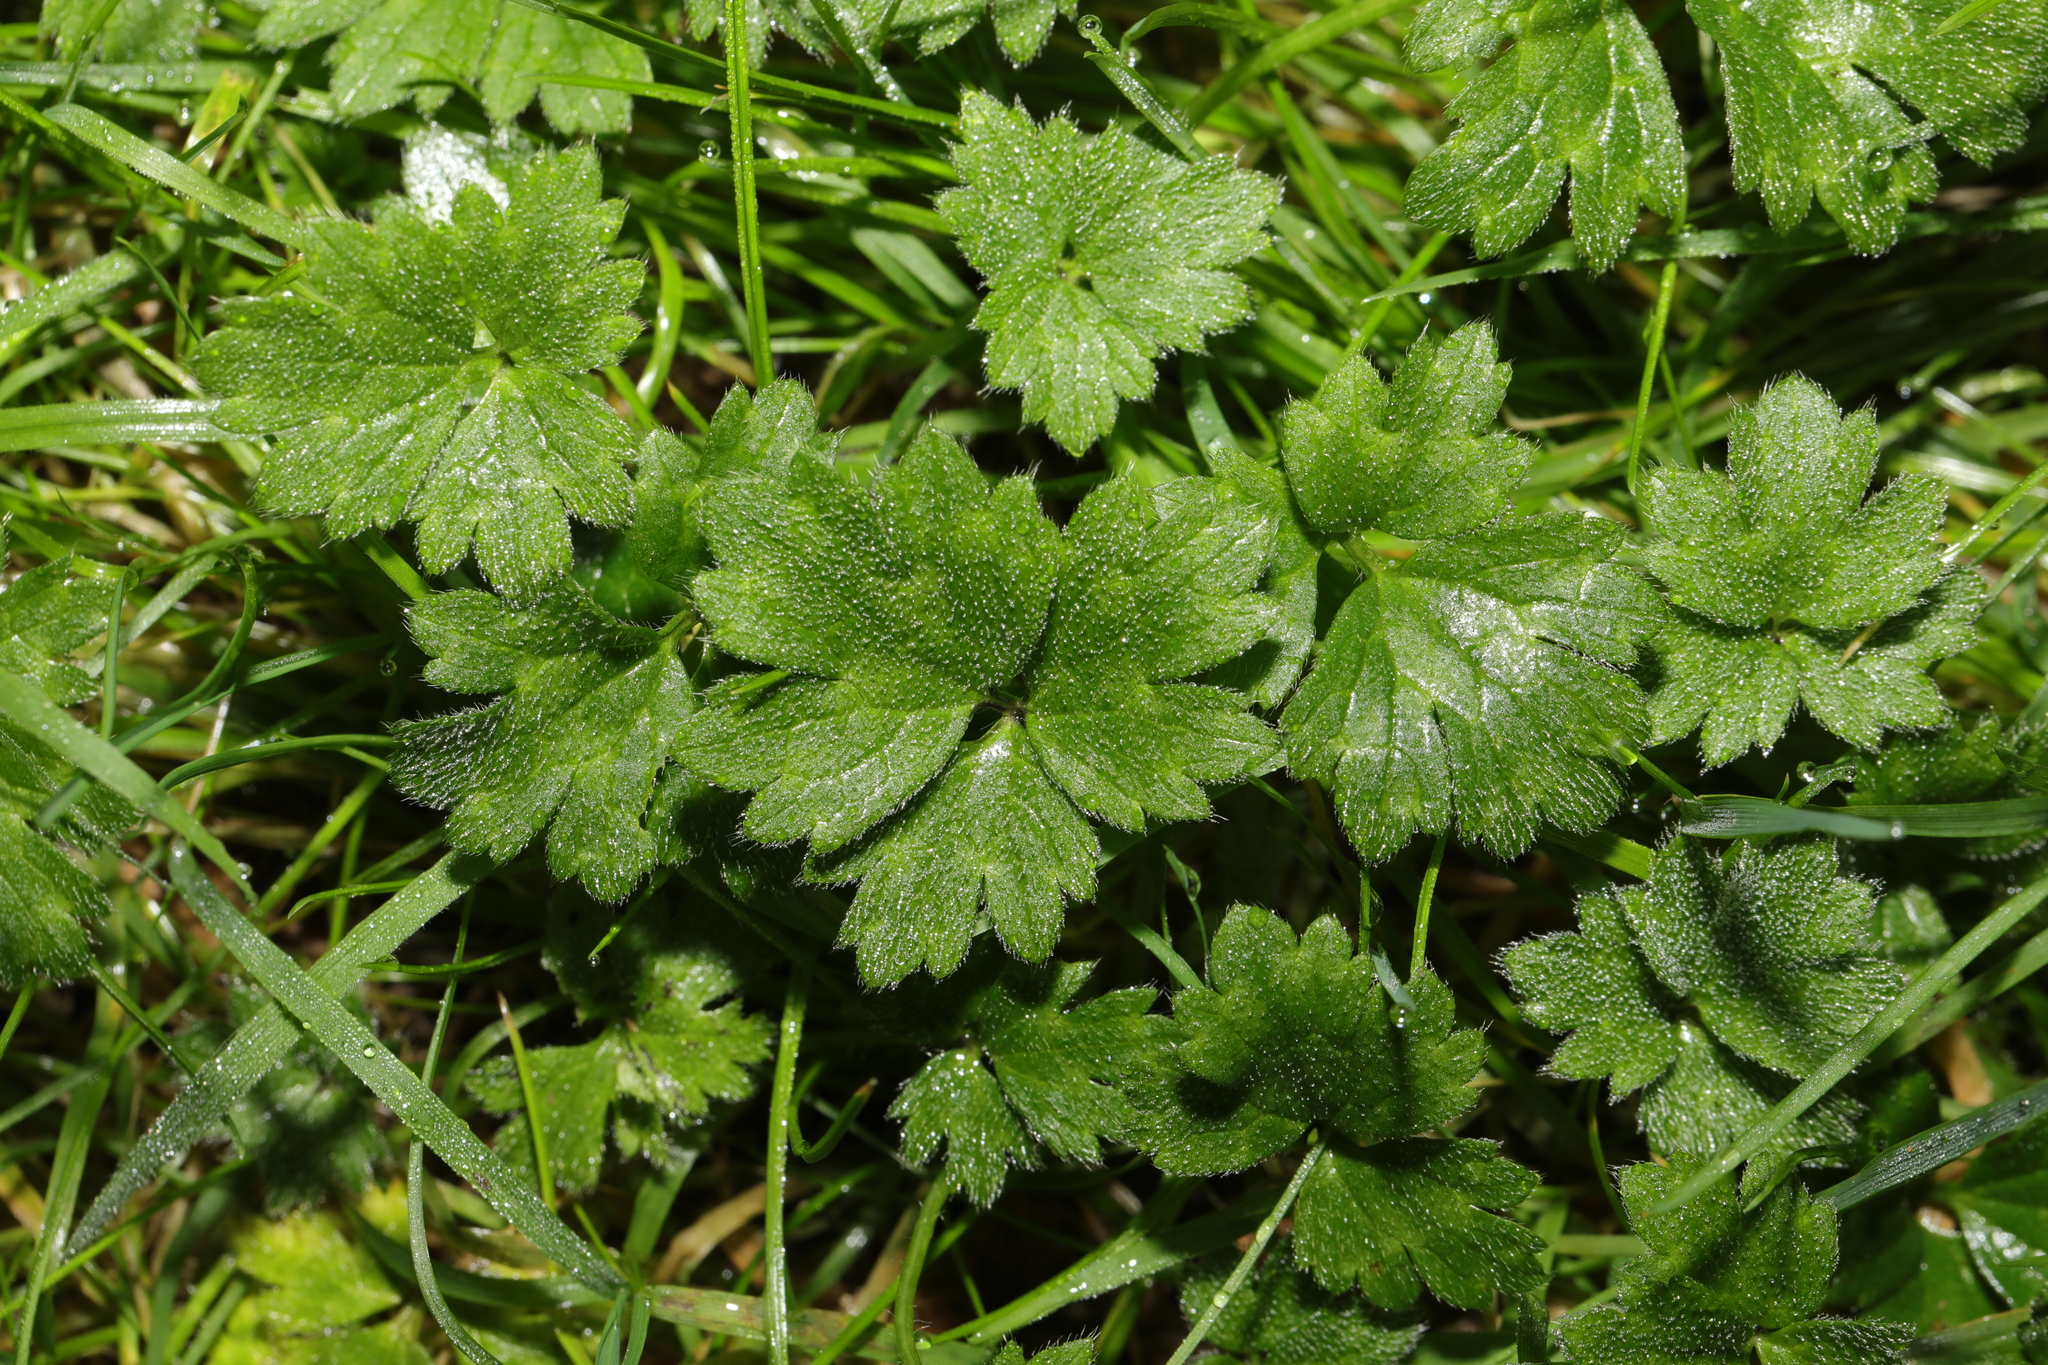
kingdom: Plantae
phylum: Tracheophyta
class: Magnoliopsida
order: Ranunculales
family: Ranunculaceae
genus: Ranunculus
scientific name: Ranunculus repens
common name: Creeping buttercup
